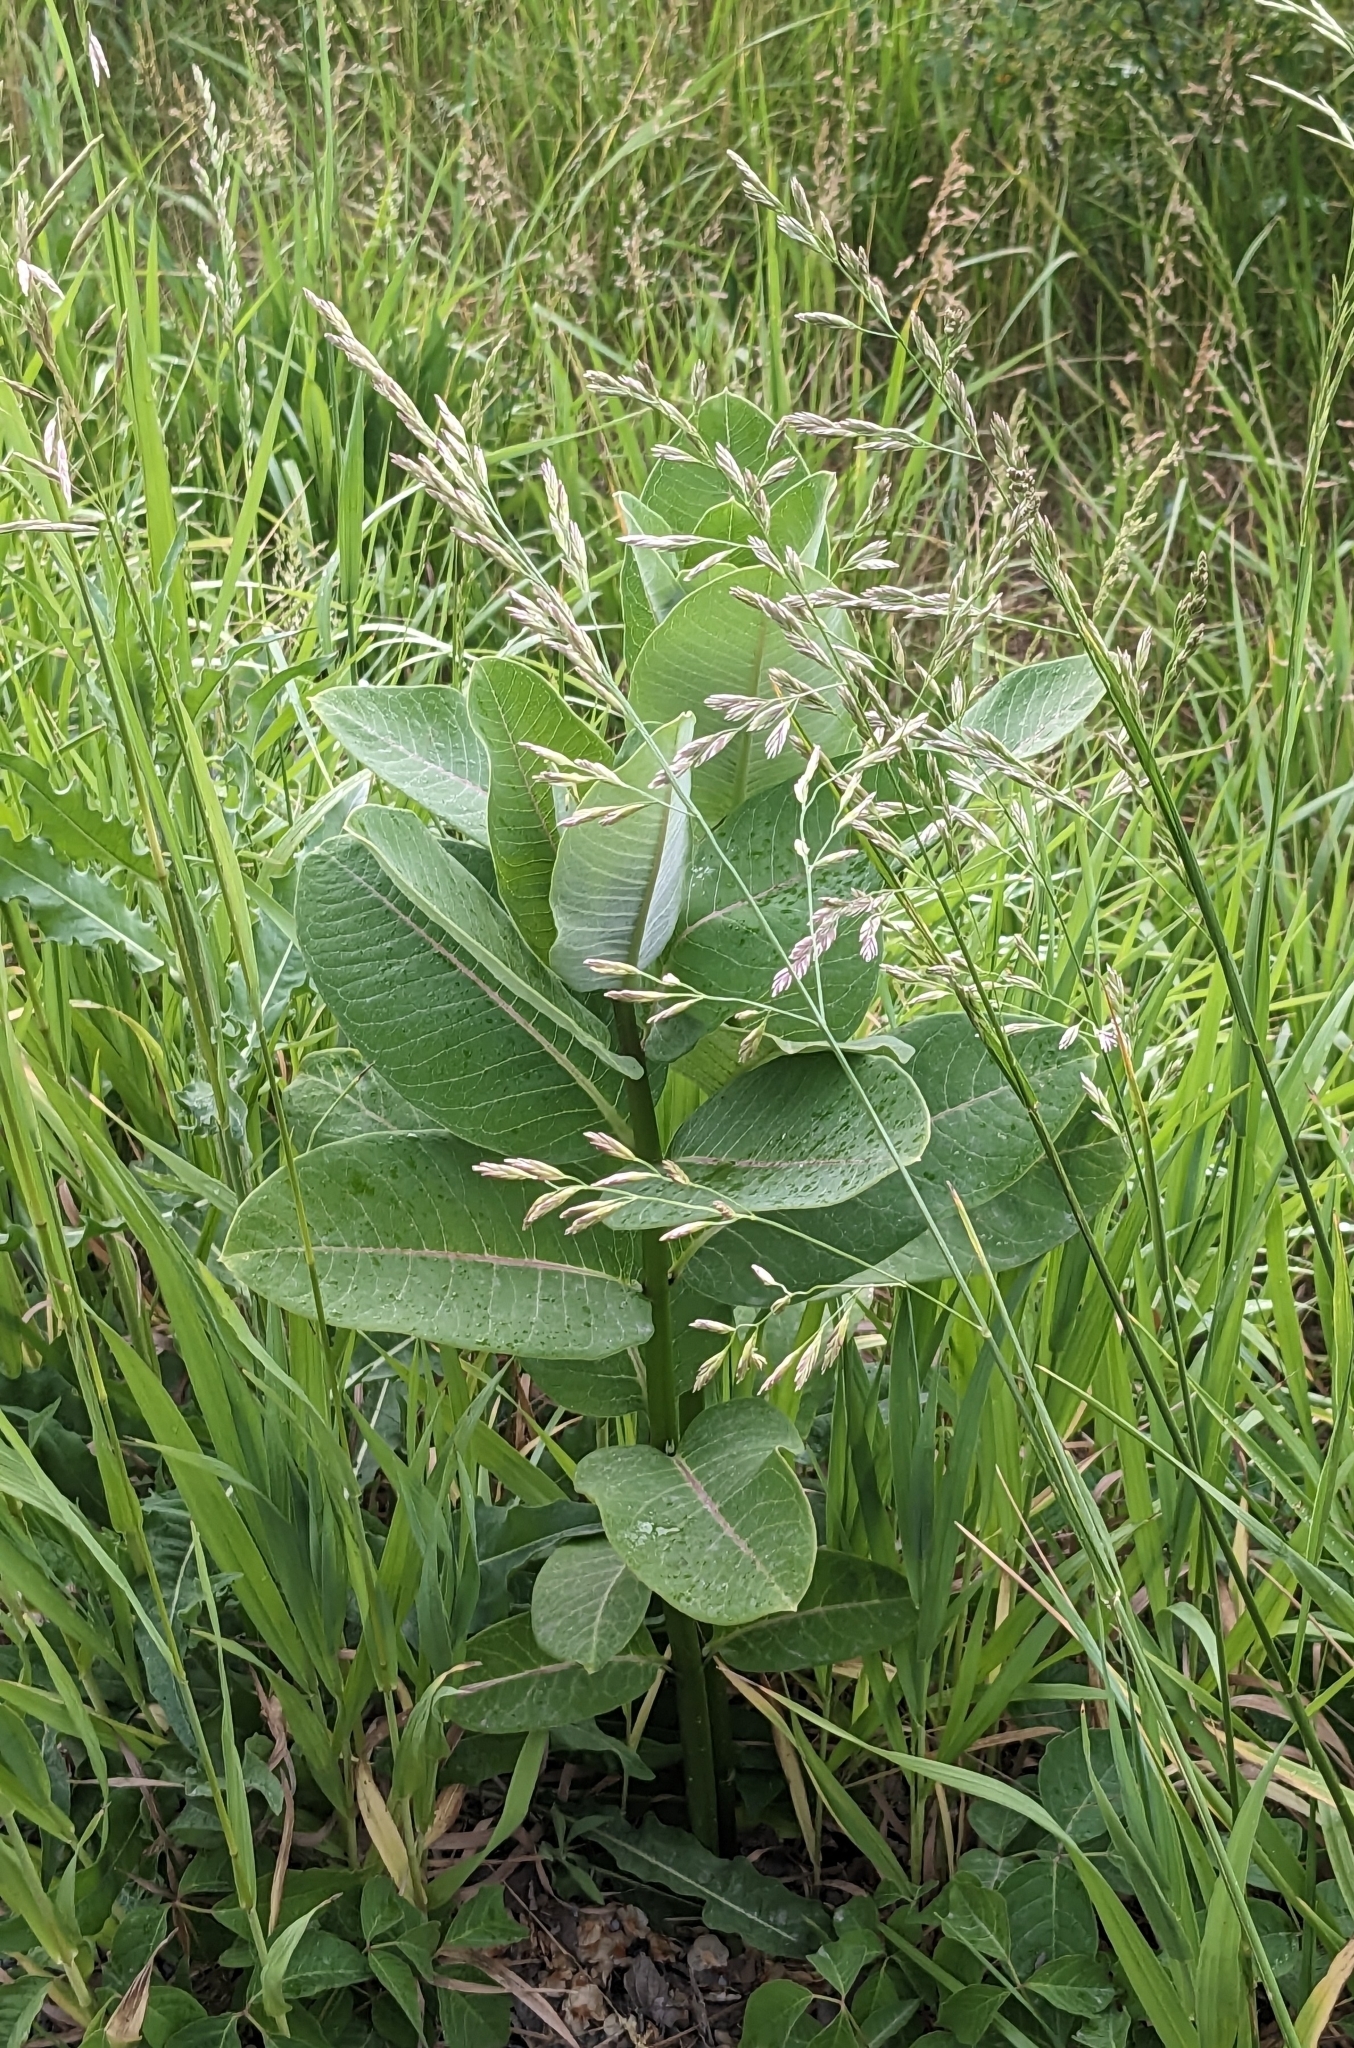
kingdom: Plantae
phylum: Tracheophyta
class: Magnoliopsida
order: Gentianales
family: Apocynaceae
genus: Asclepias
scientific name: Asclepias syriaca
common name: Common milkweed
